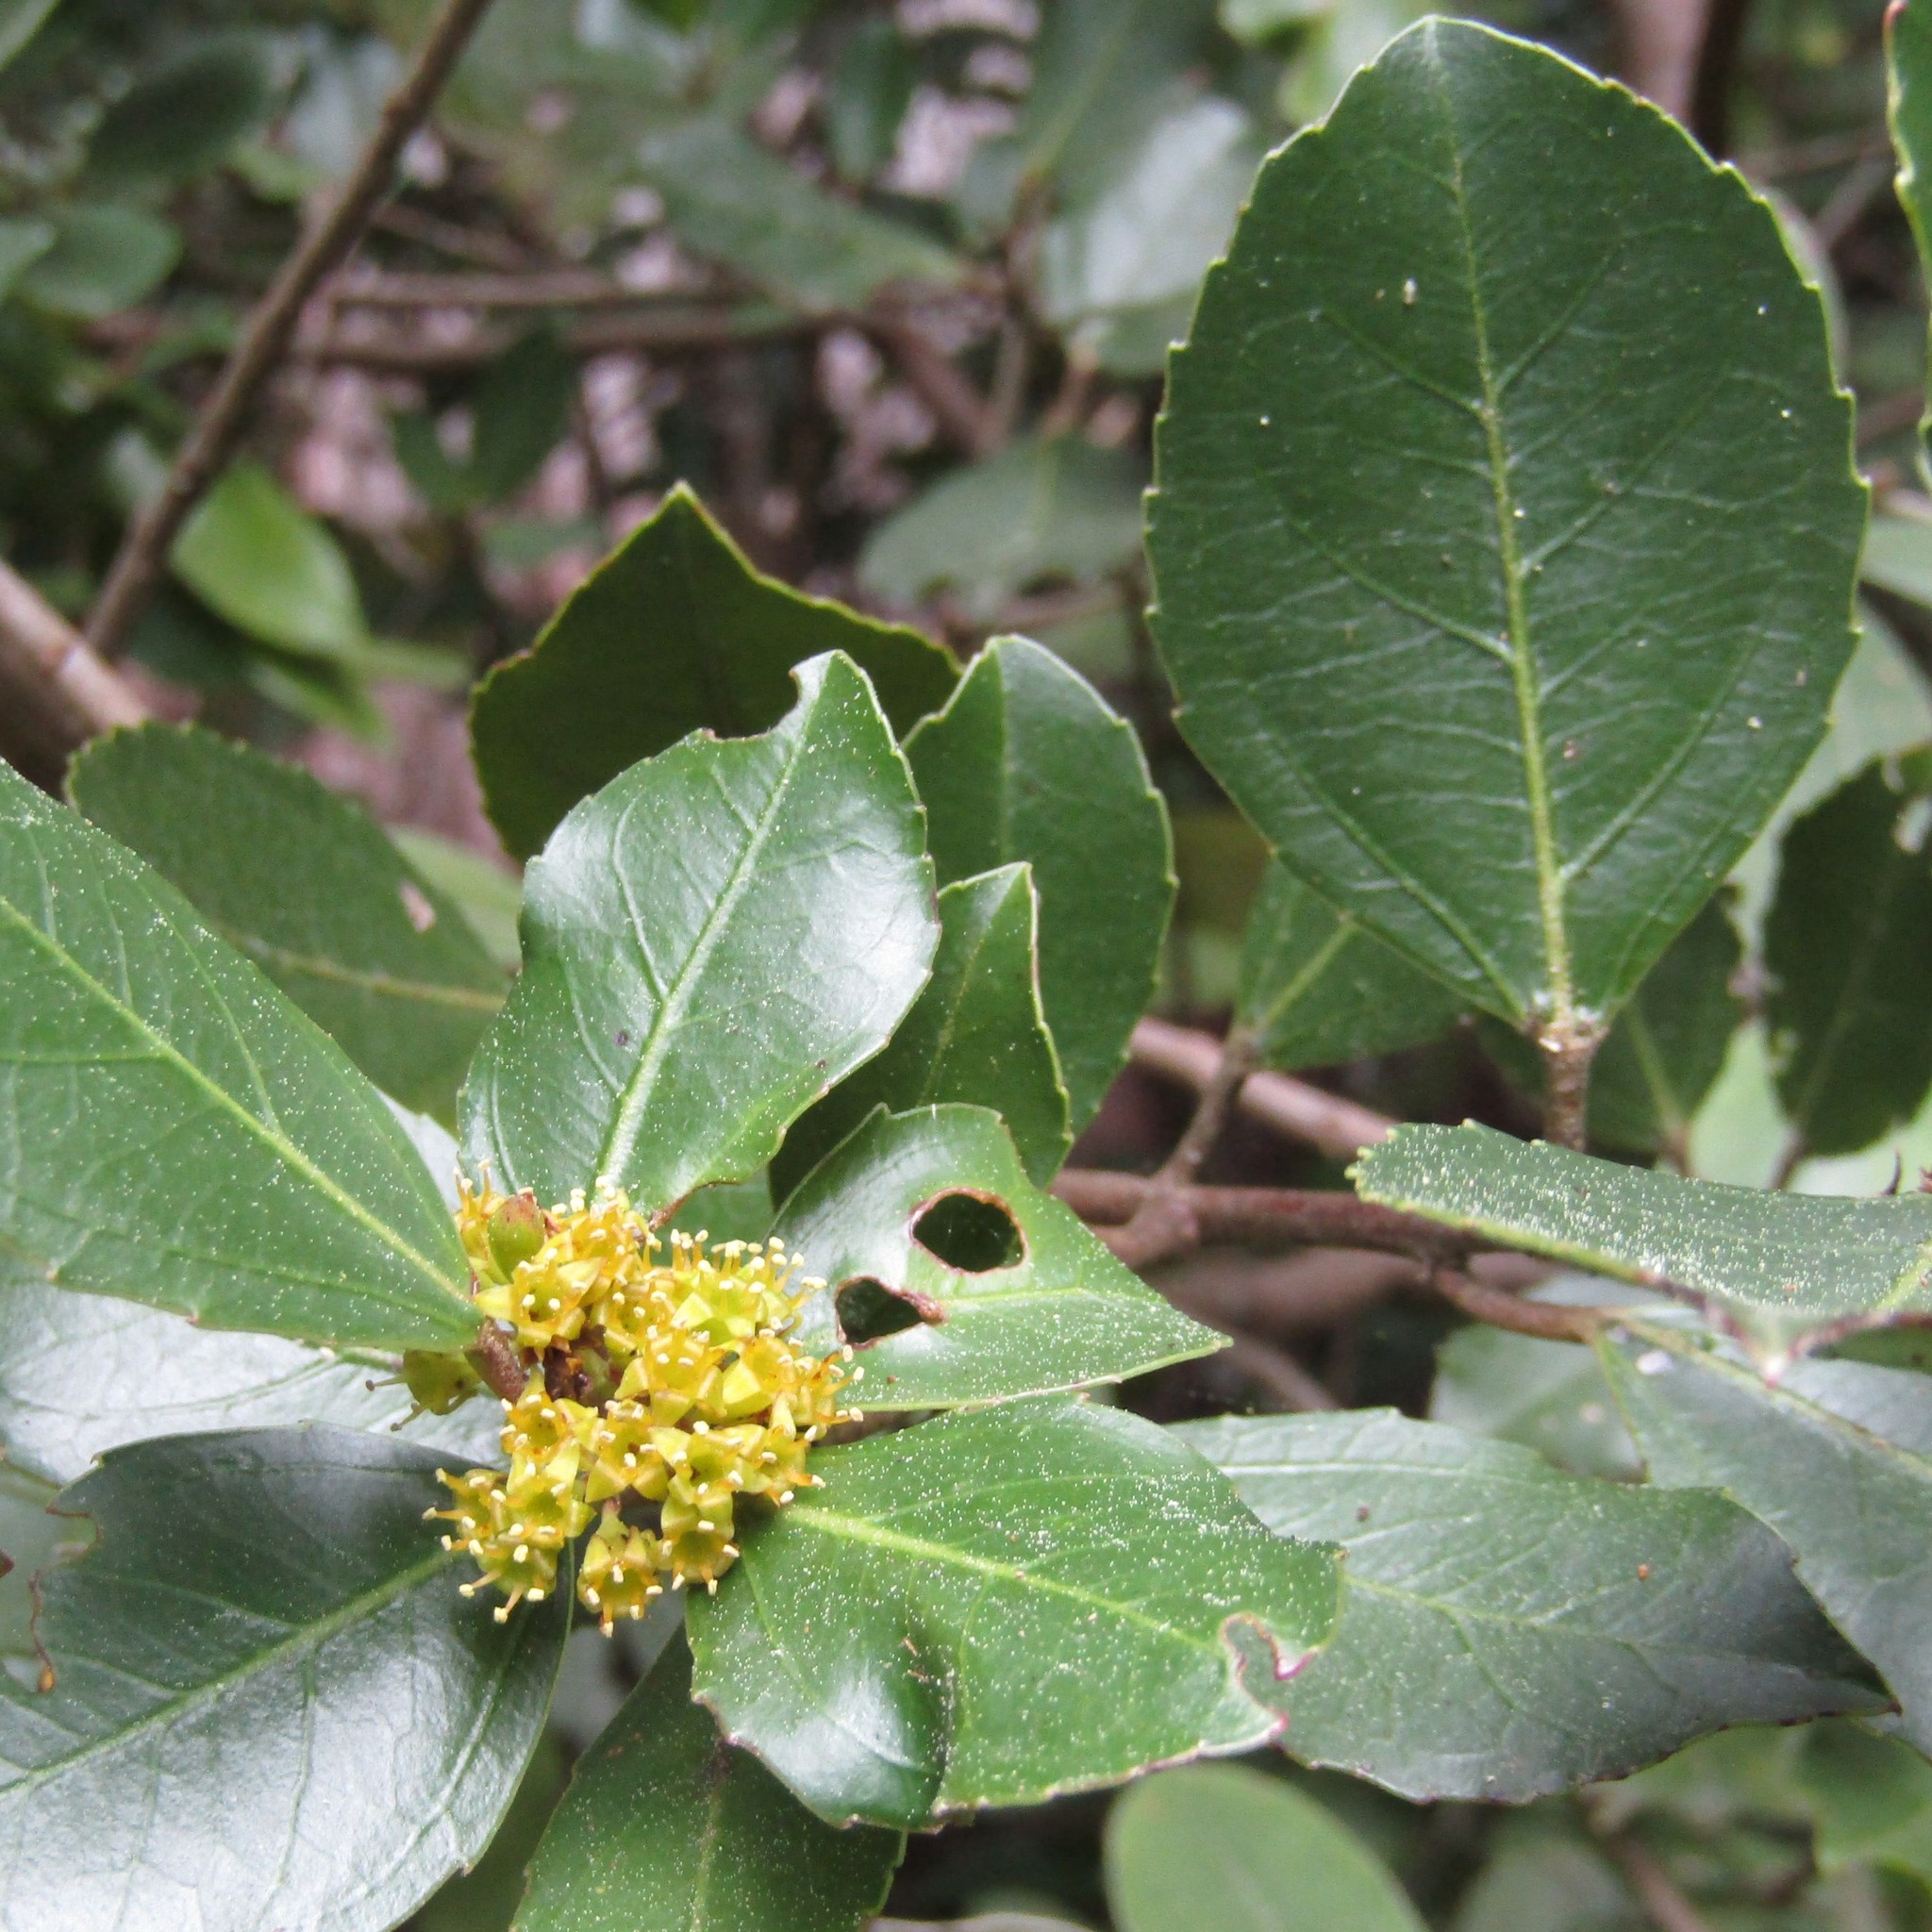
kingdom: Plantae
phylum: Tracheophyta
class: Magnoliopsida
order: Rosales
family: Rhamnaceae
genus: Rhamnus
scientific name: Rhamnus alaternus
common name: Mediterranean buckthorn
